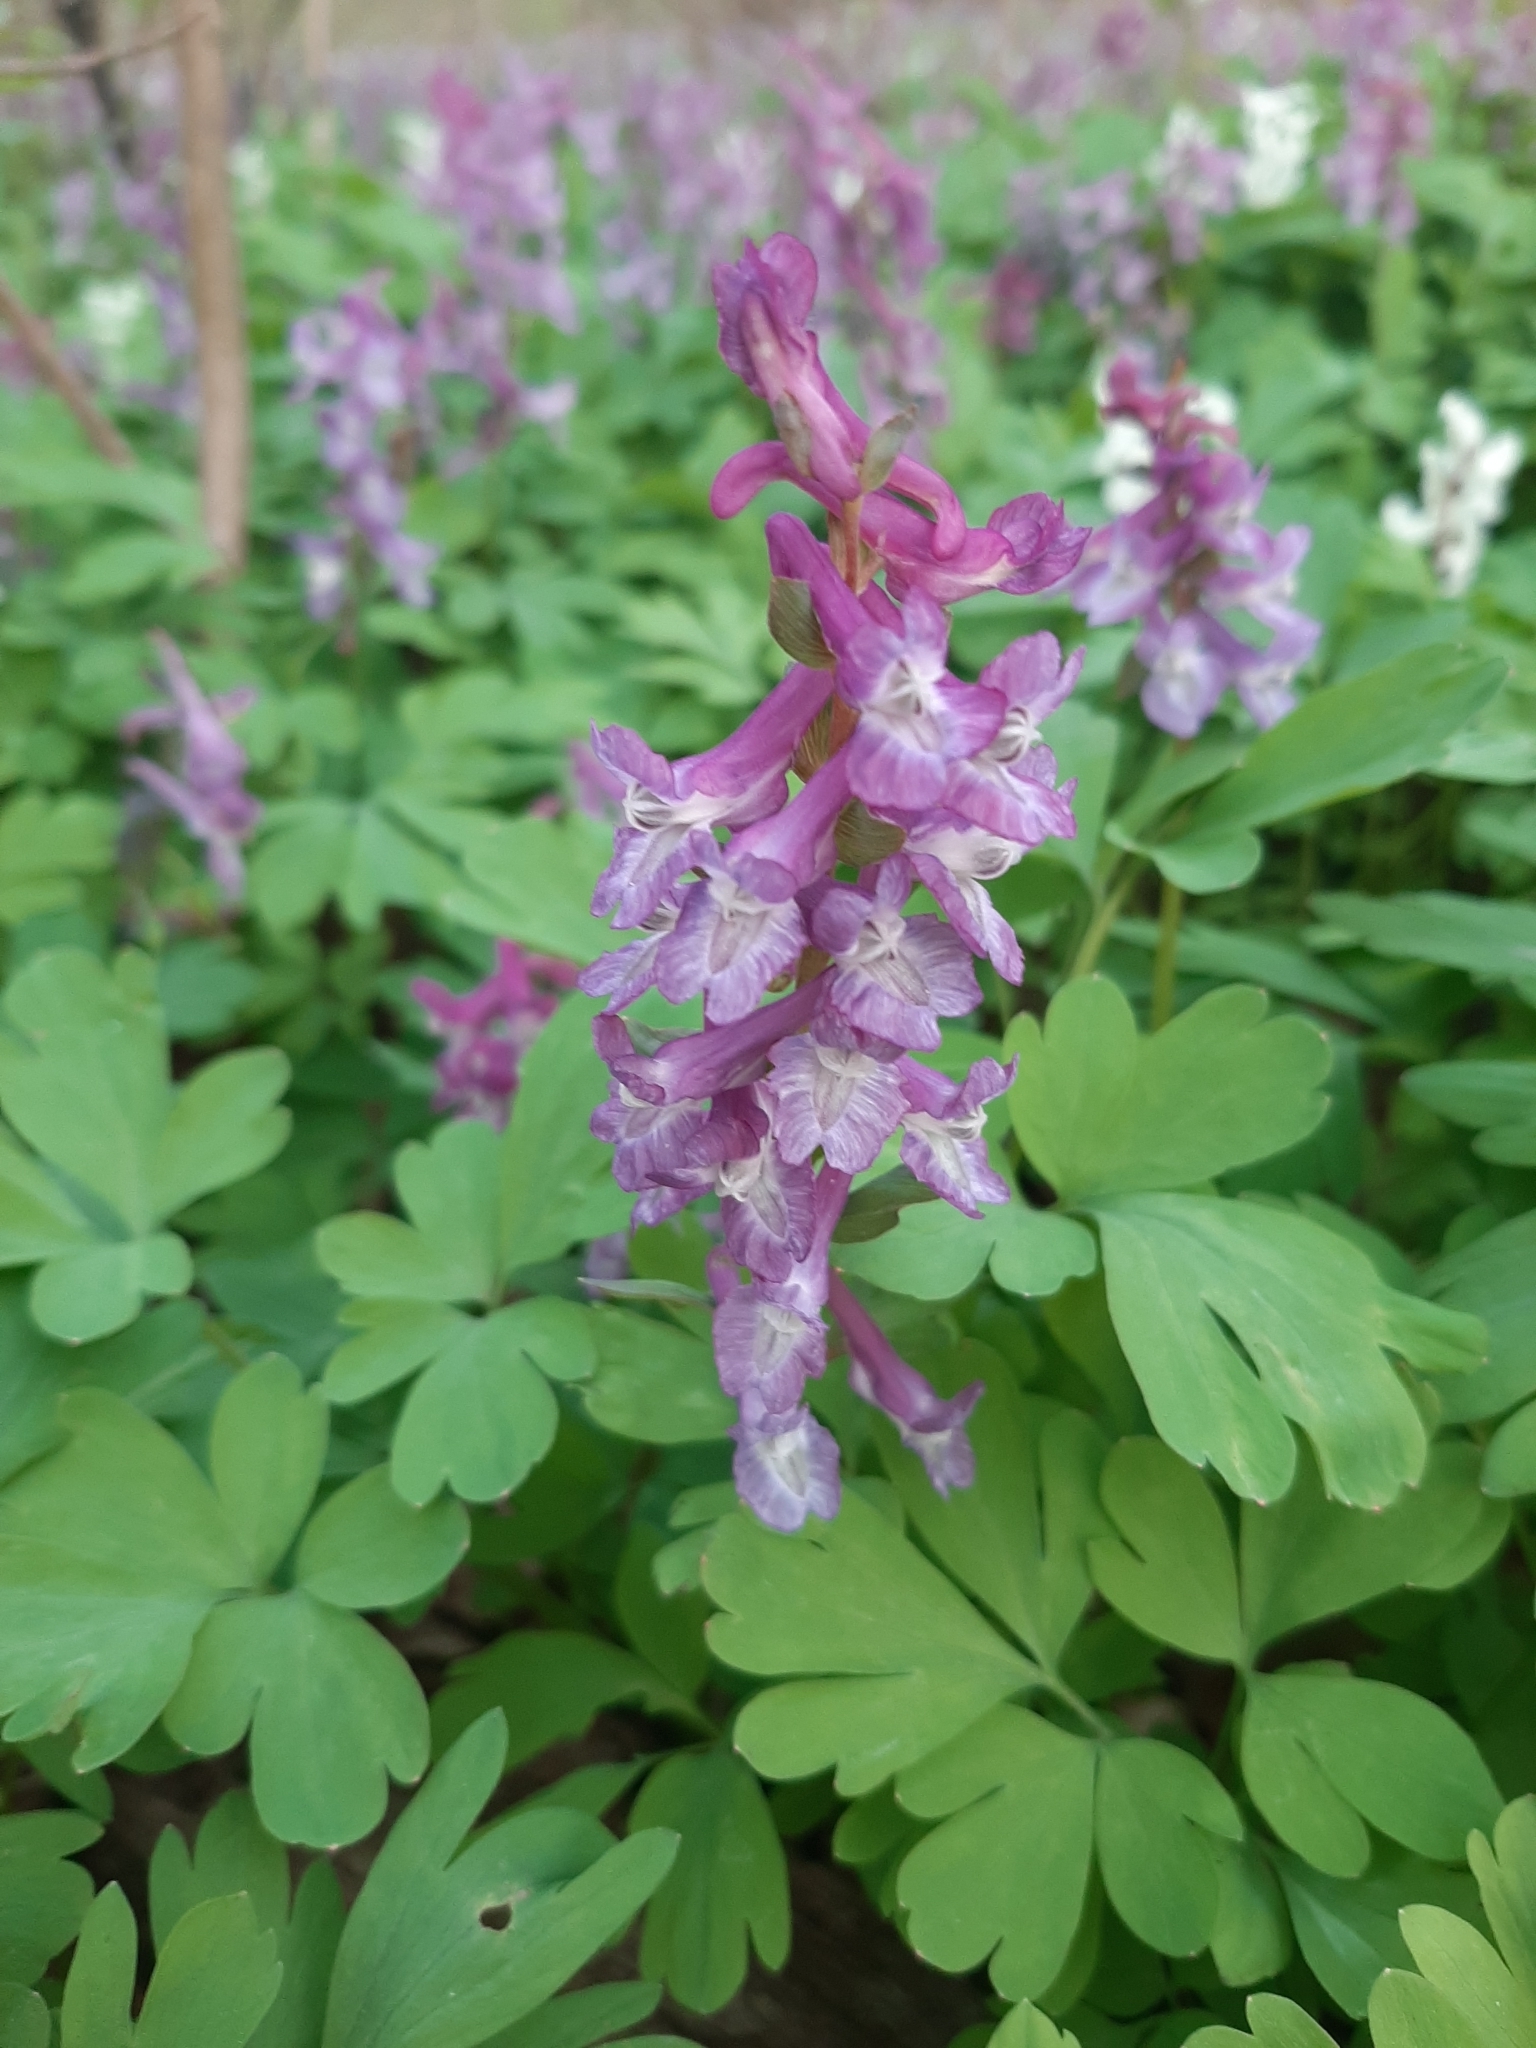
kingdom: Plantae
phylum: Tracheophyta
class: Magnoliopsida
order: Ranunculales
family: Papaveraceae
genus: Corydalis
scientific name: Corydalis cava
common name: Hollowroot
